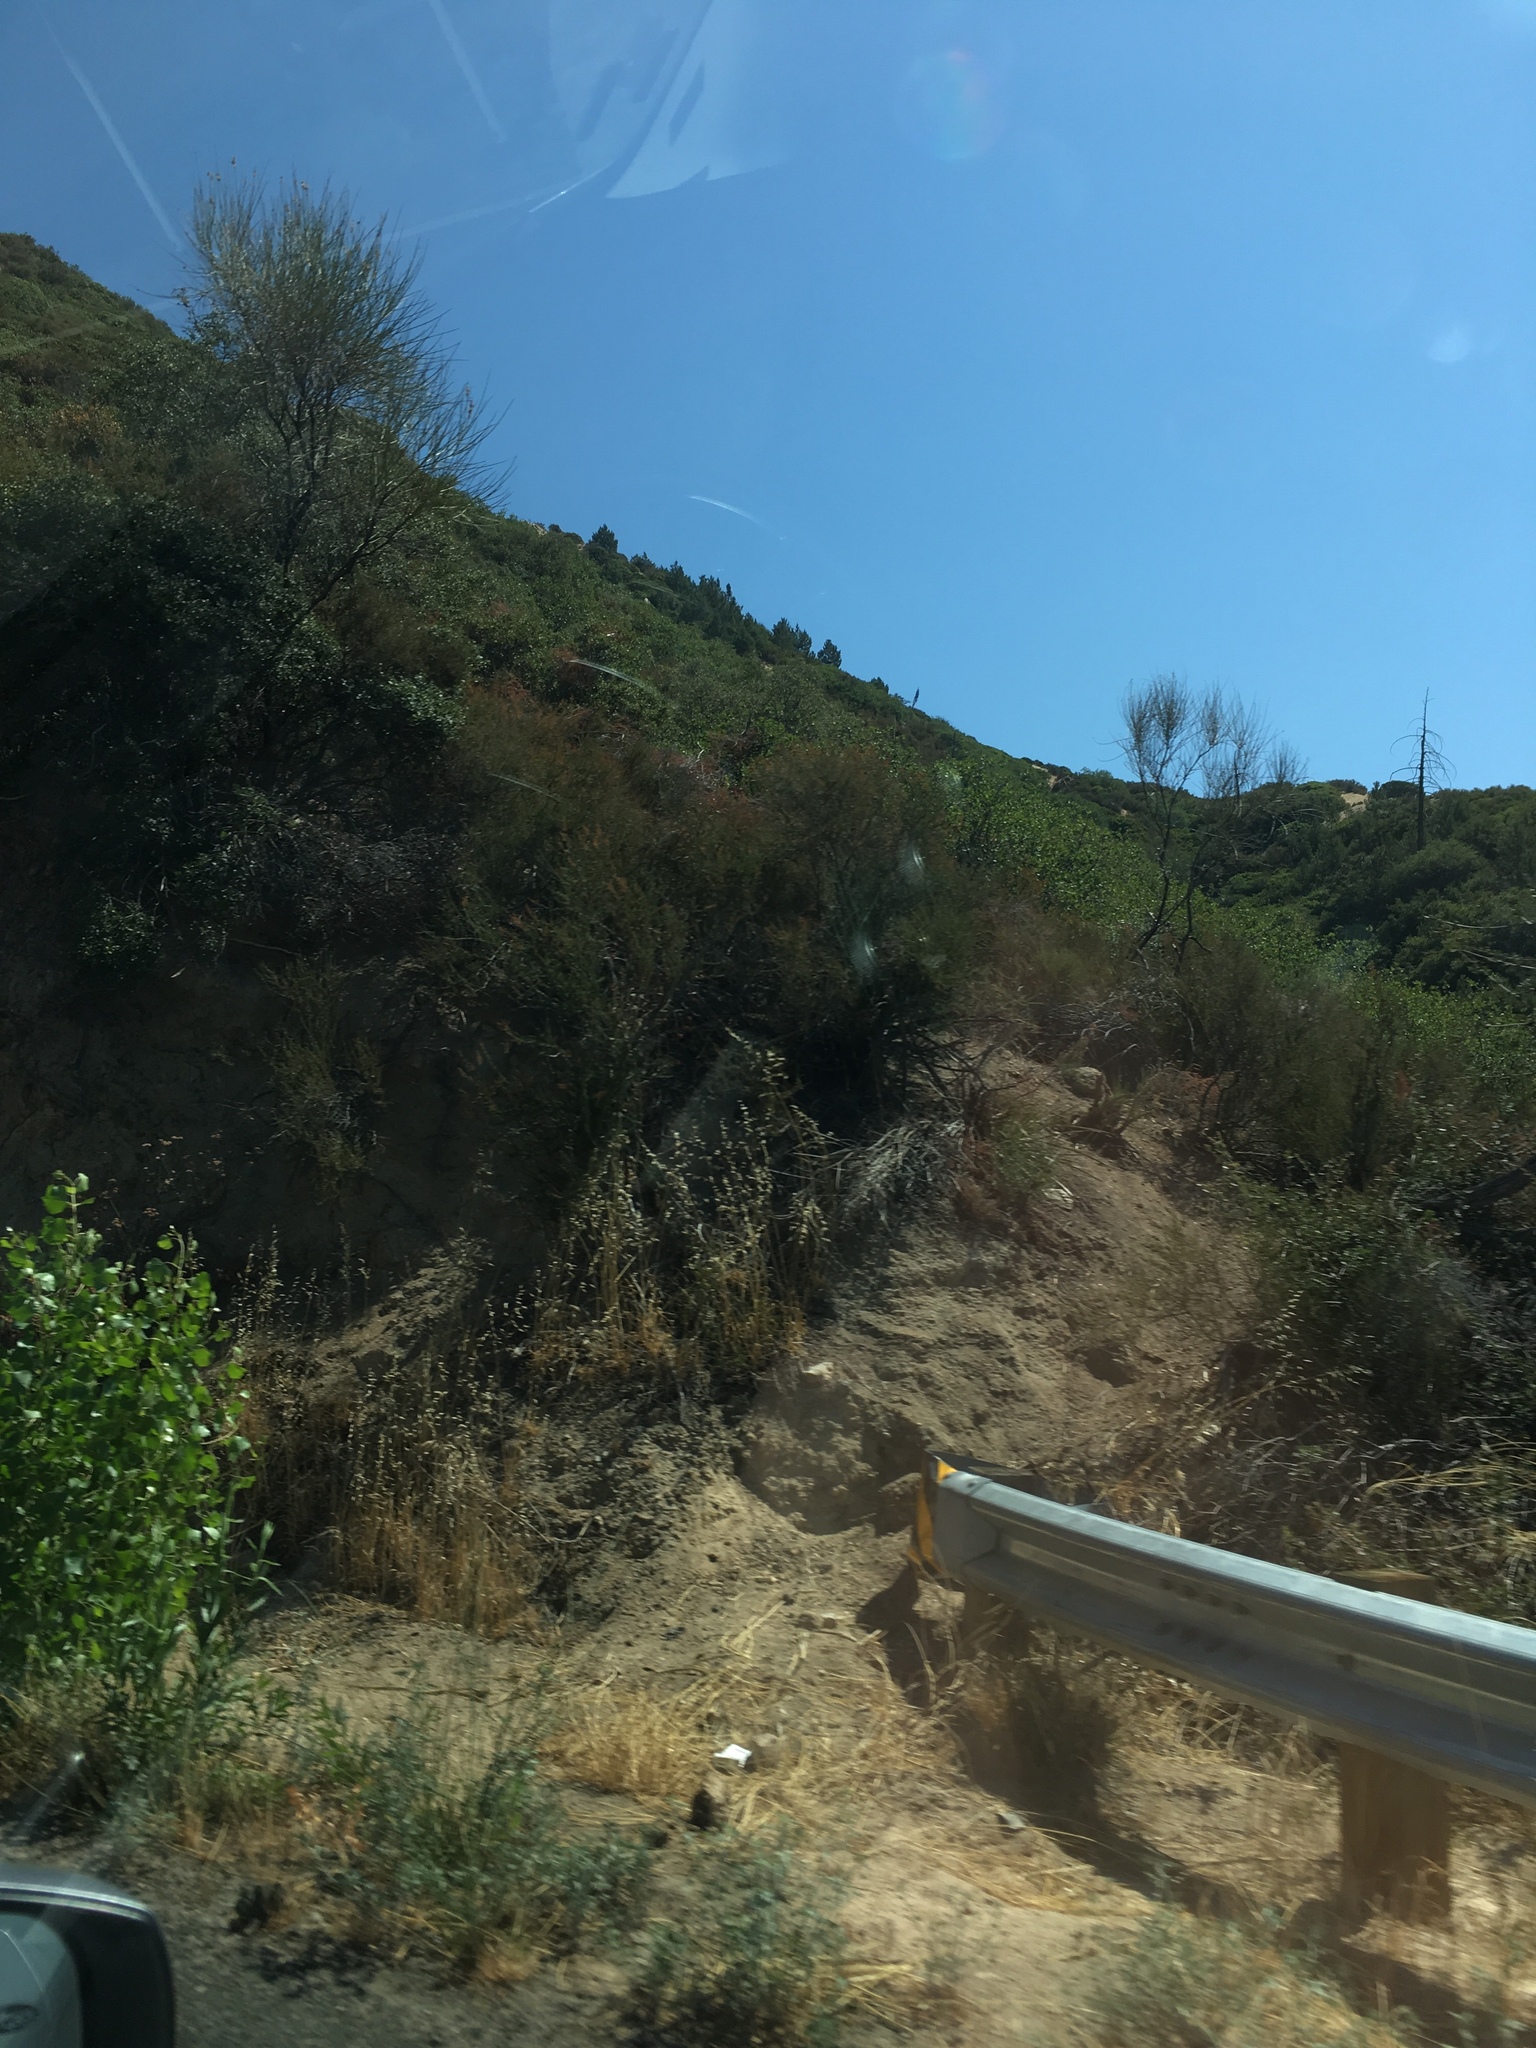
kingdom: Plantae
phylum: Tracheophyta
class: Magnoliopsida
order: Fabales
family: Fabaceae
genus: Spartium
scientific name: Spartium junceum
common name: Spanish broom
